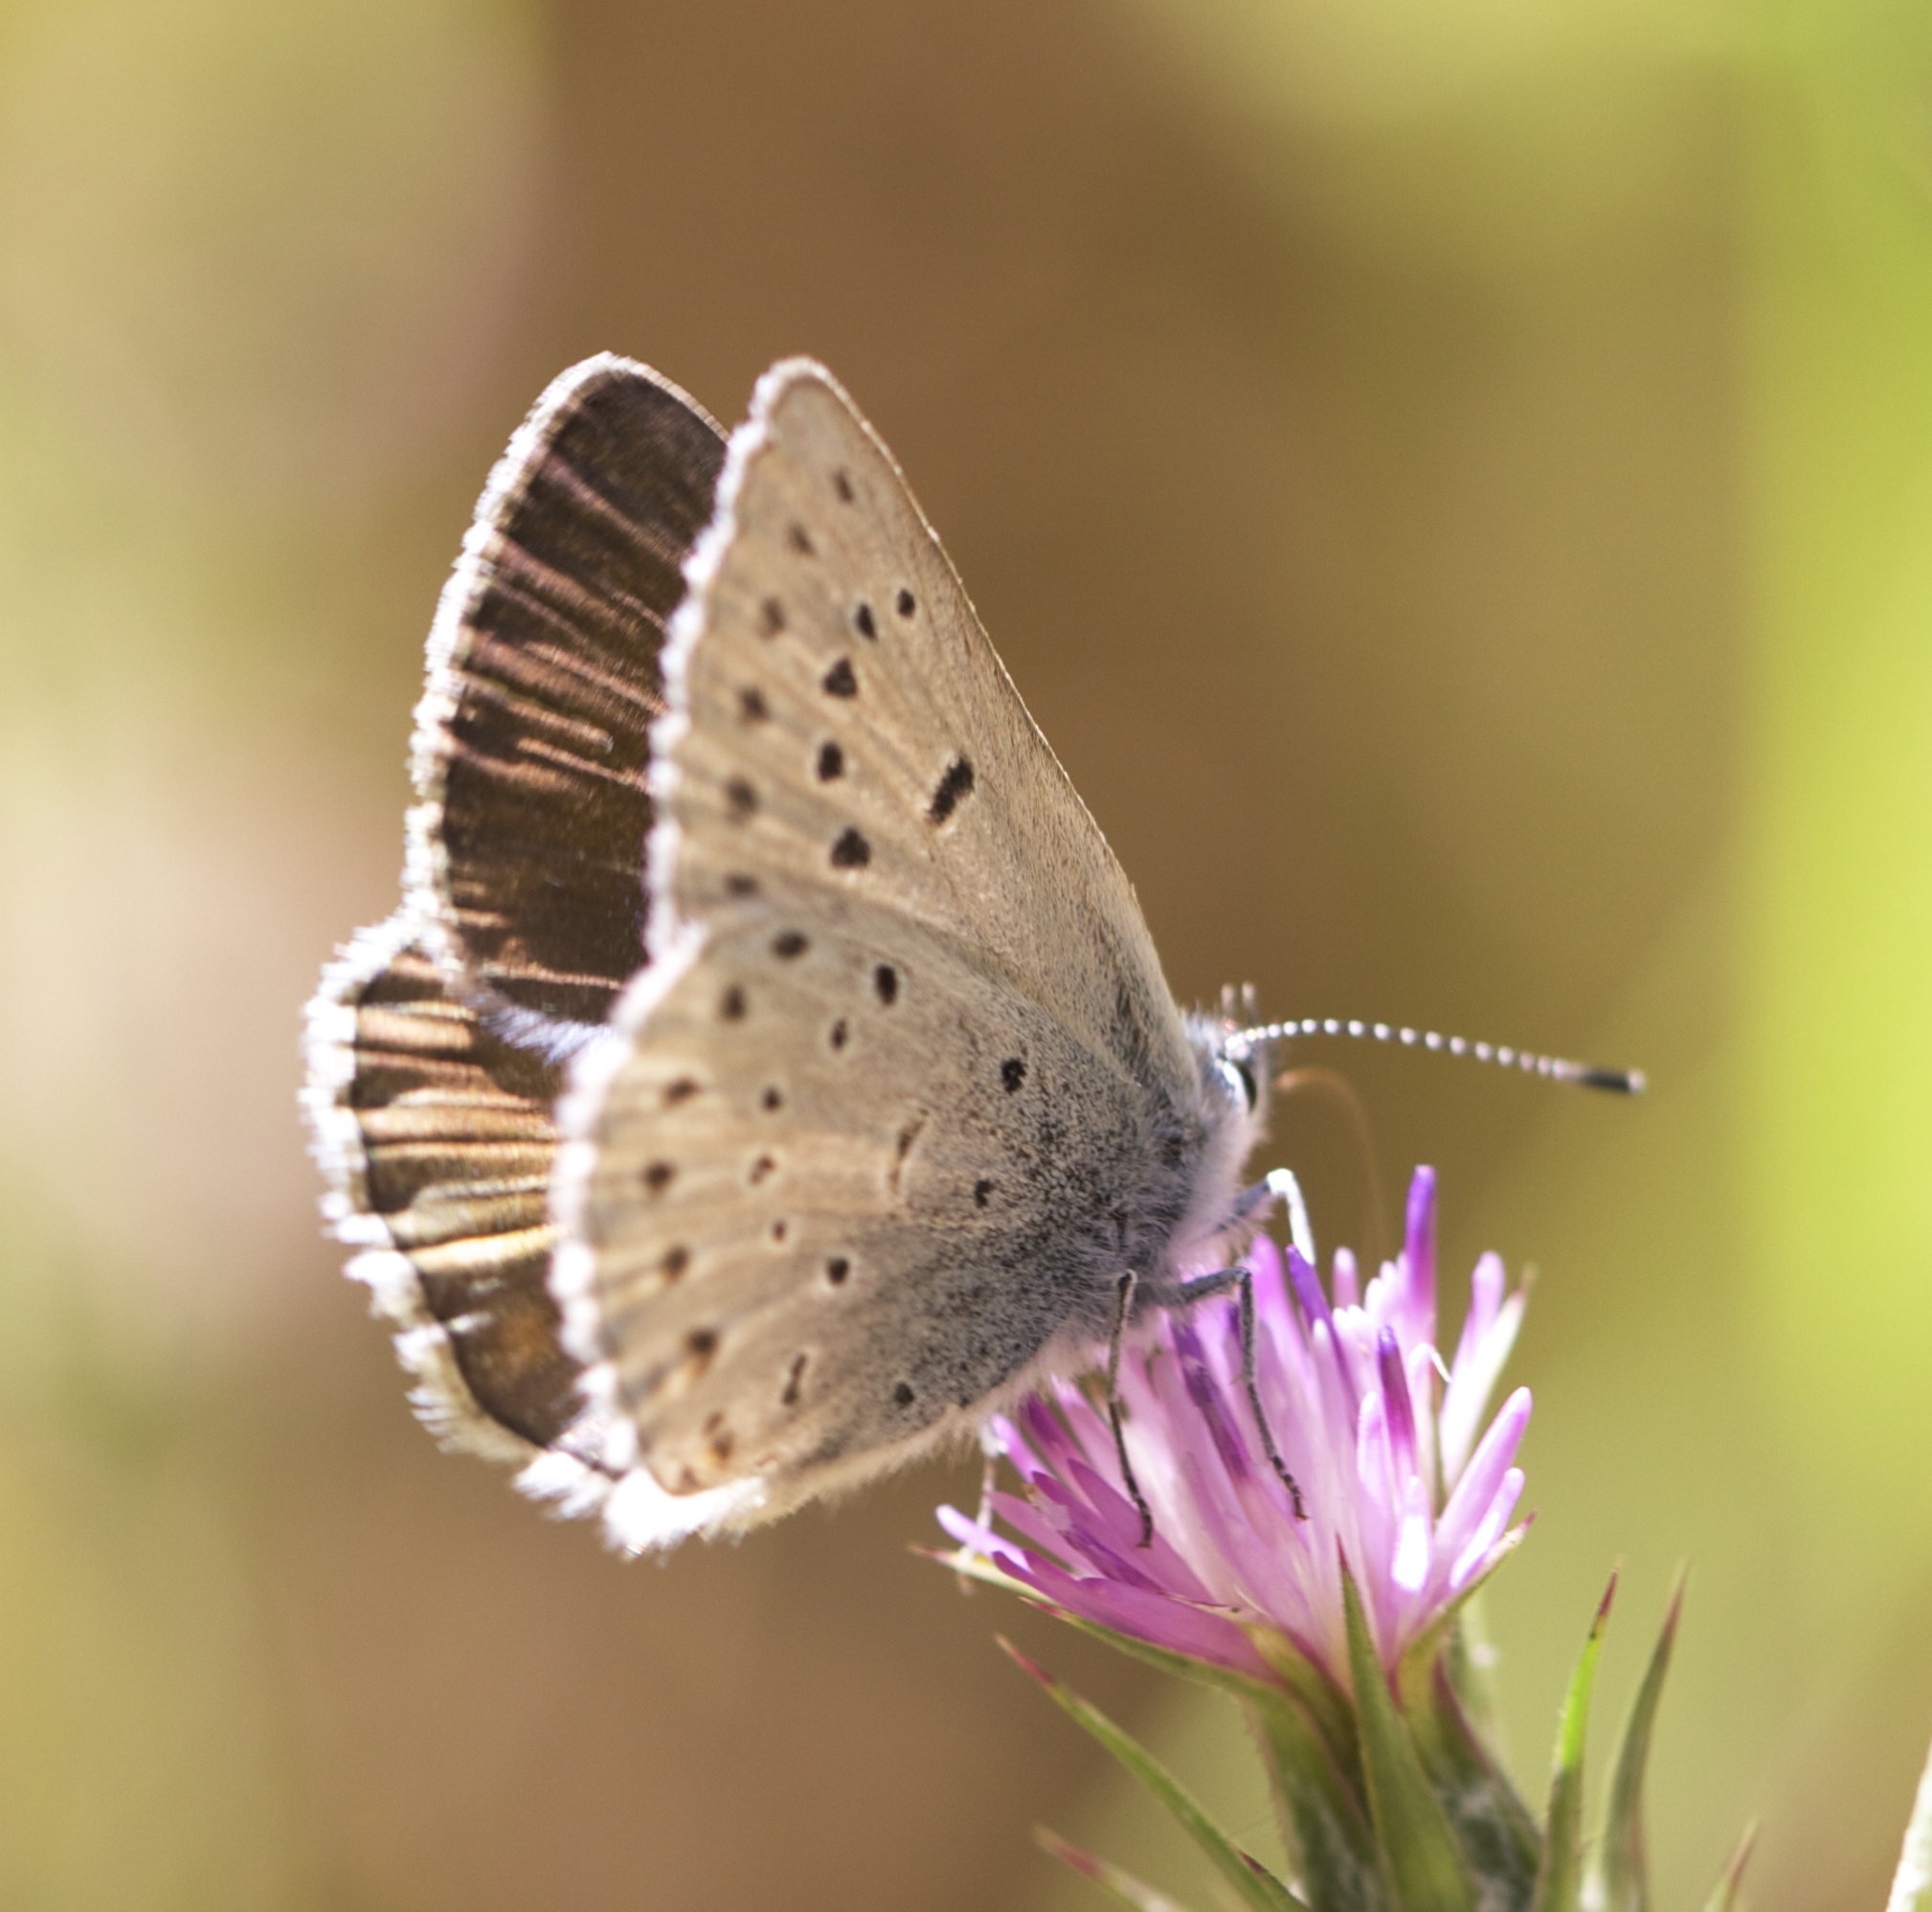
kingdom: Animalia
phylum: Arthropoda
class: Insecta
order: Lepidoptera
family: Lycaenidae
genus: Icaricia
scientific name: Icaricia icarioides
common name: Boisduval's blue
